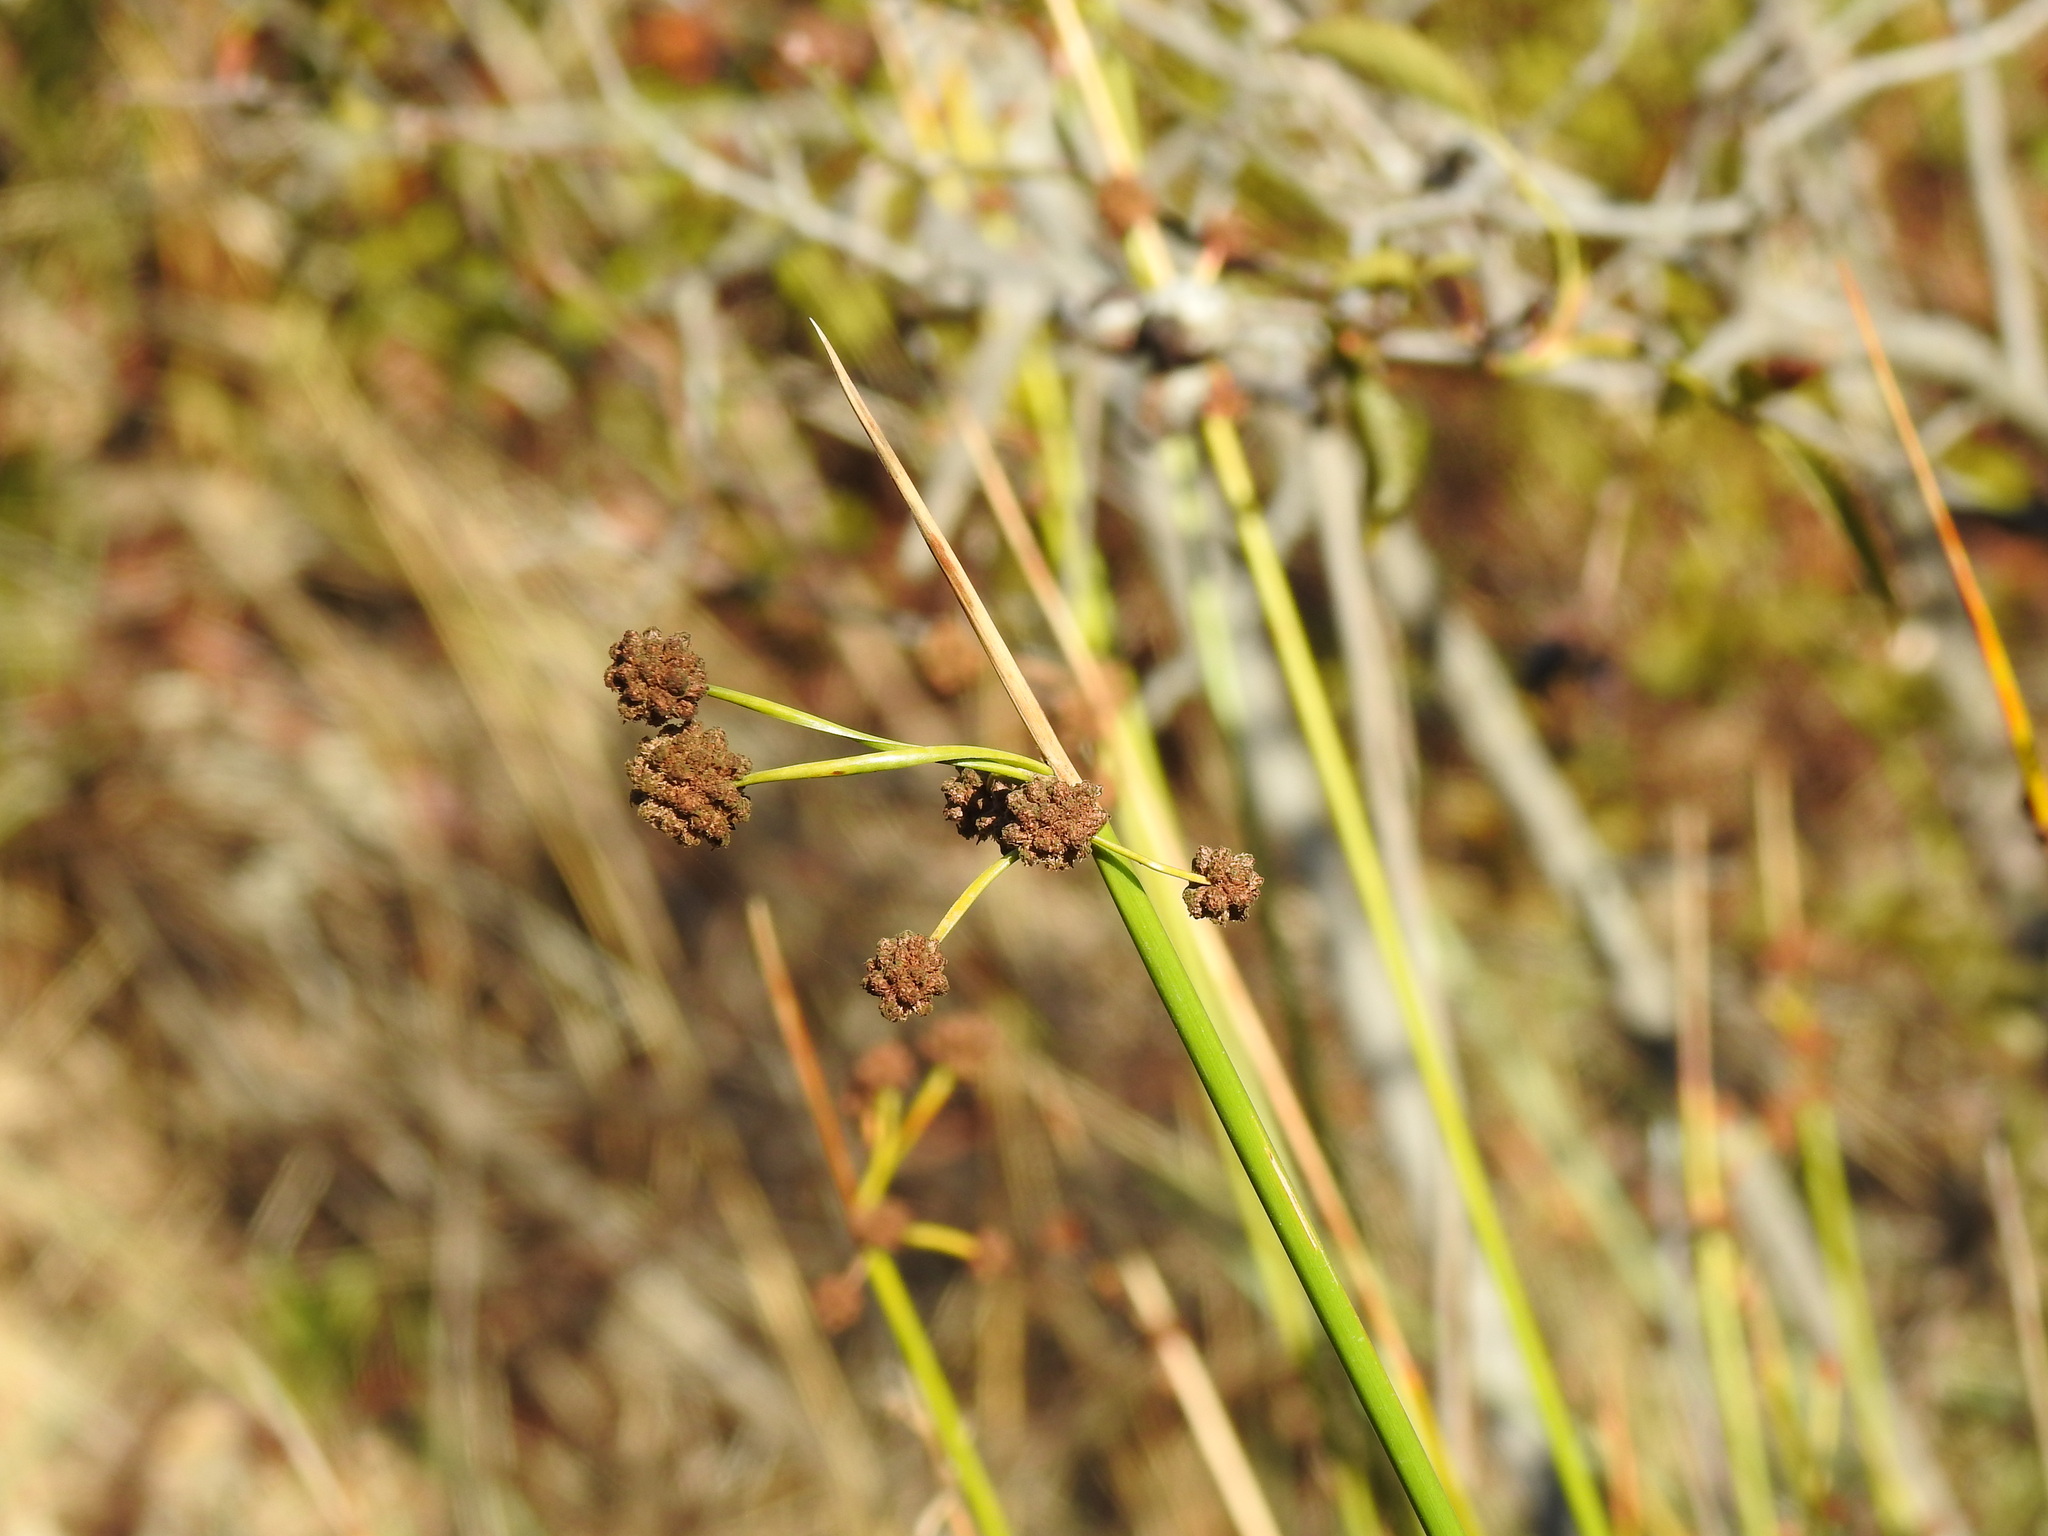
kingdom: Plantae
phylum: Tracheophyta
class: Liliopsida
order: Poales
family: Cyperaceae
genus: Scirpoides
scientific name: Scirpoides holoschoenus
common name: Round-headed club-rush
